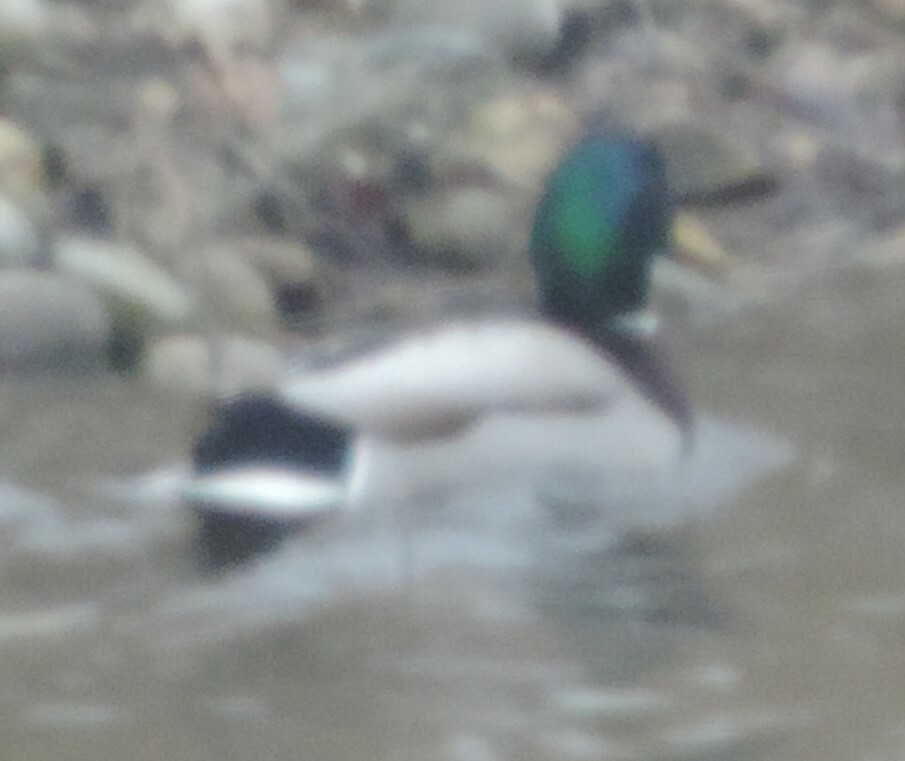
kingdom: Animalia
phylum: Chordata
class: Aves
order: Anseriformes
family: Anatidae
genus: Anas
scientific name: Anas platyrhynchos
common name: Mallard
